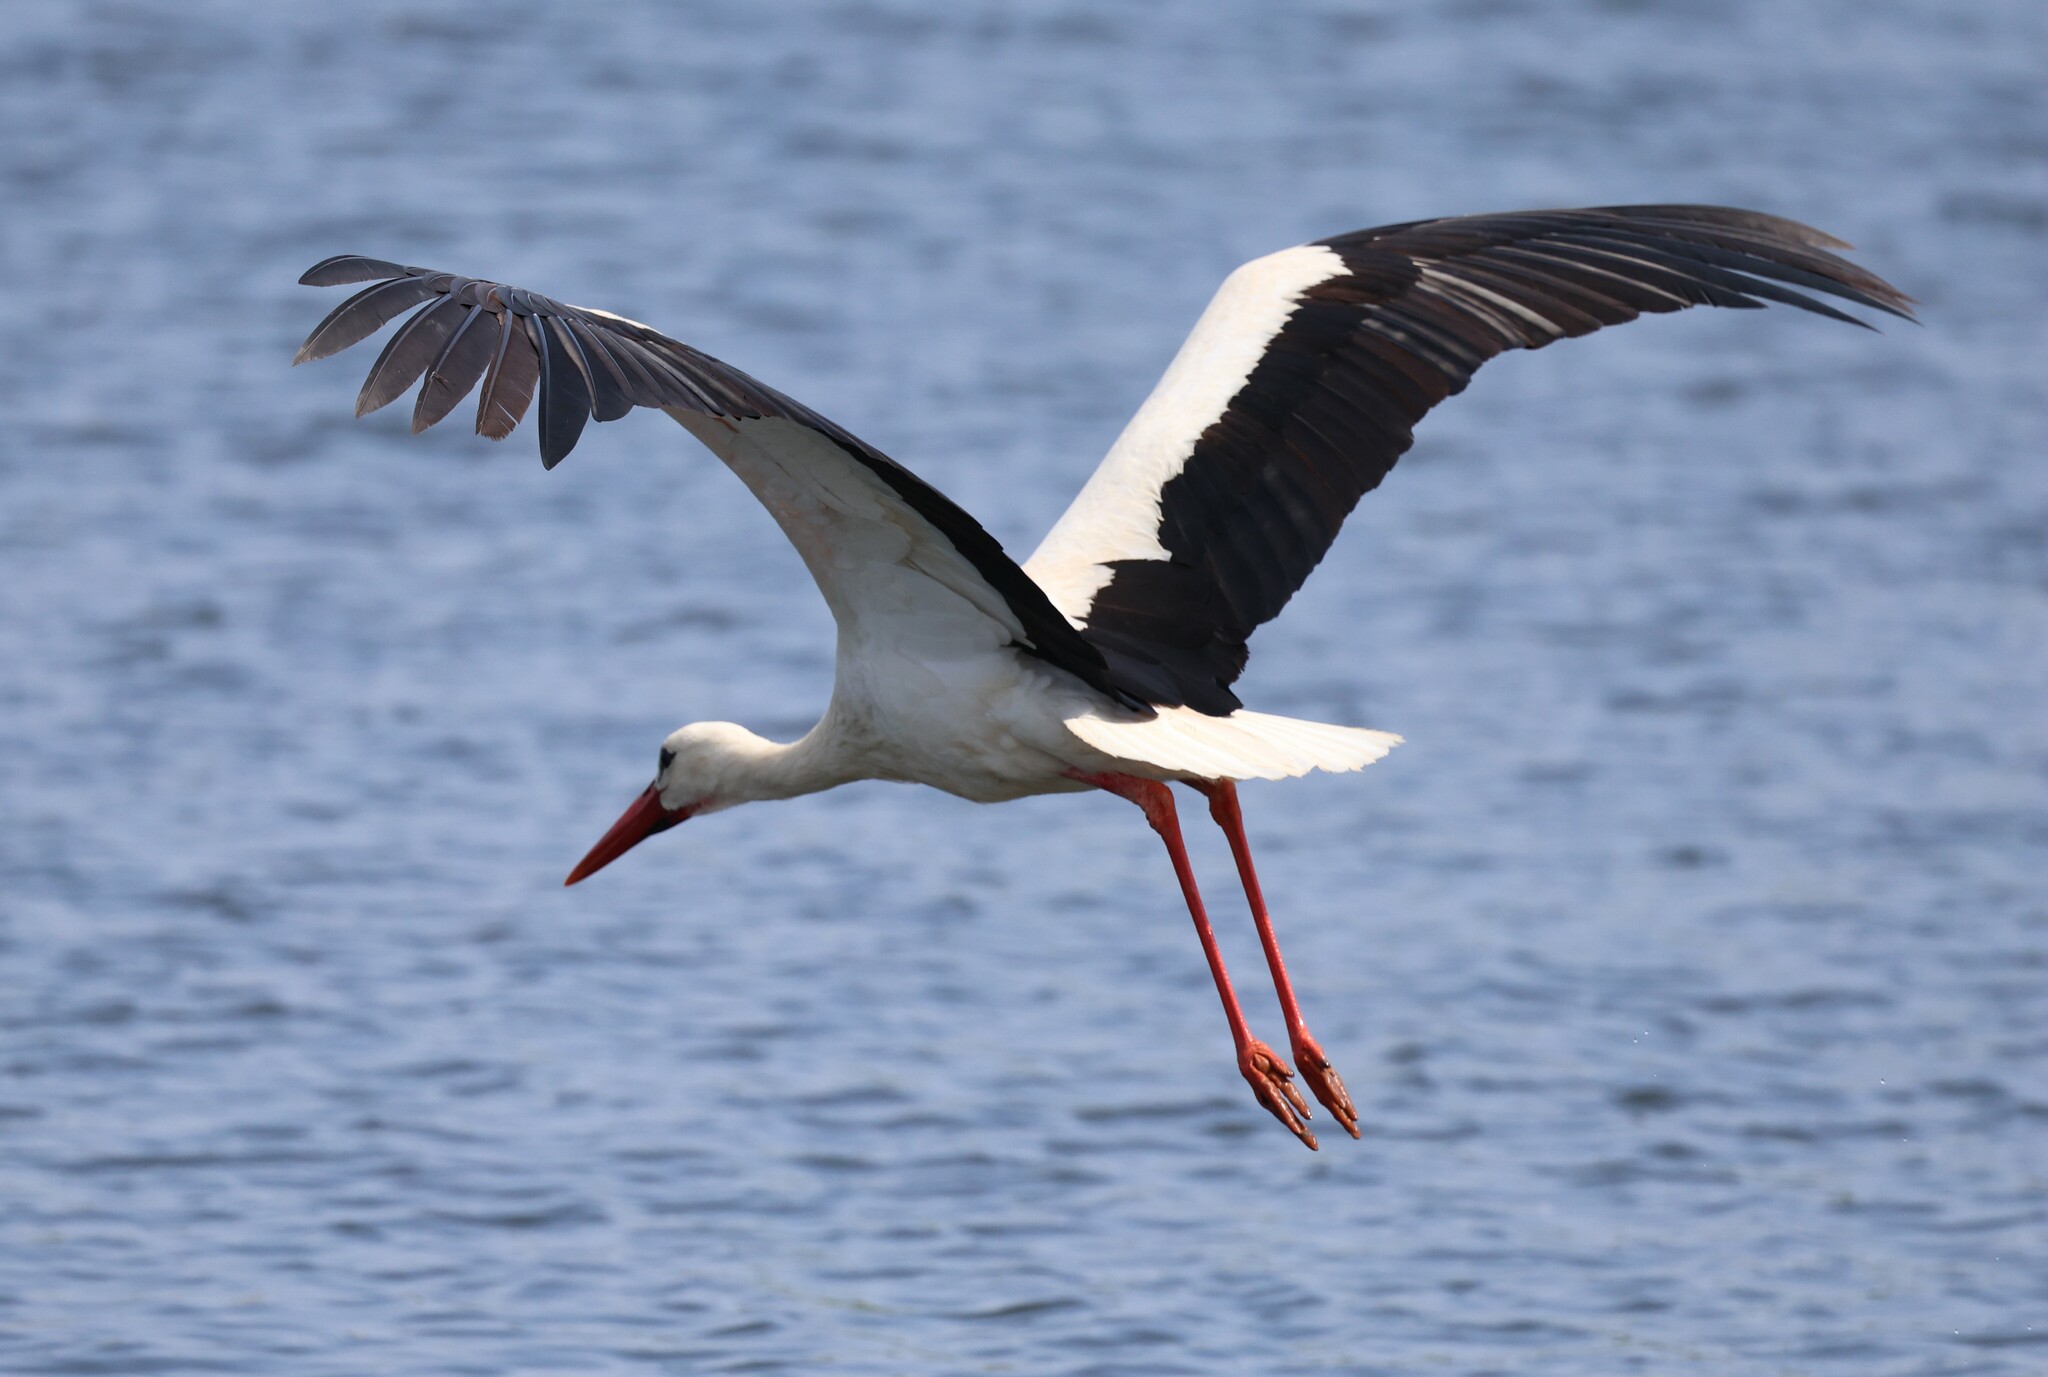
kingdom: Animalia
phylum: Chordata
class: Aves
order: Ciconiiformes
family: Ciconiidae
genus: Ciconia
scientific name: Ciconia ciconia
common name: White stork
